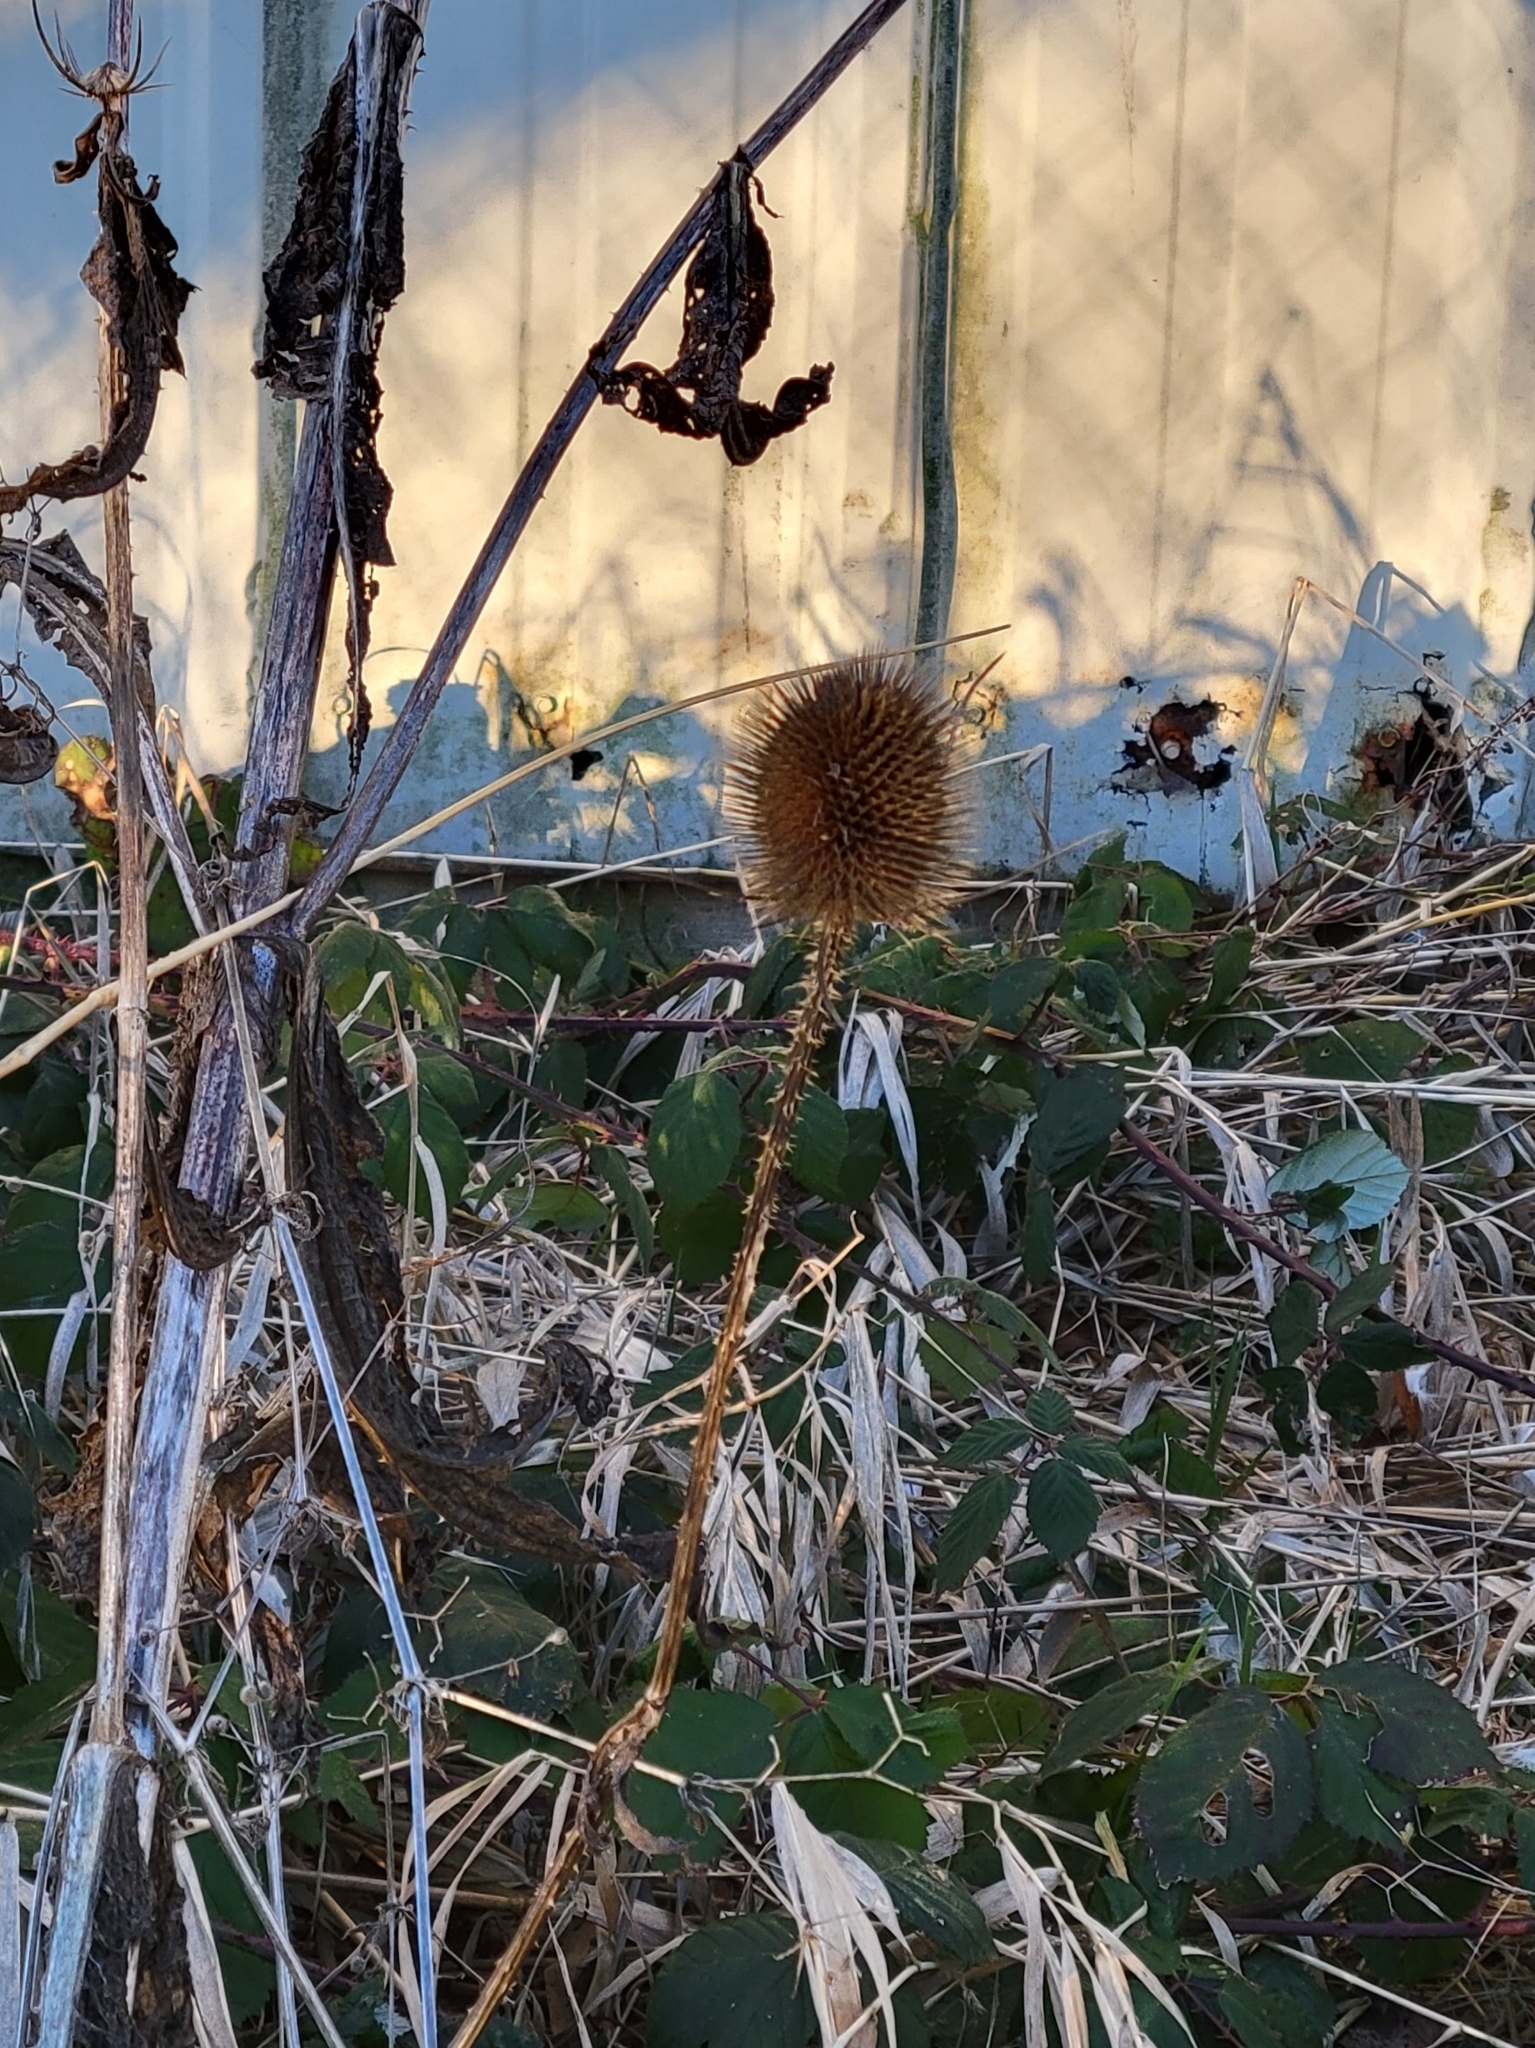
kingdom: Plantae
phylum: Tracheophyta
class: Magnoliopsida
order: Dipsacales
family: Caprifoliaceae
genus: Dipsacus
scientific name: Dipsacus fullonum
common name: Teasel
